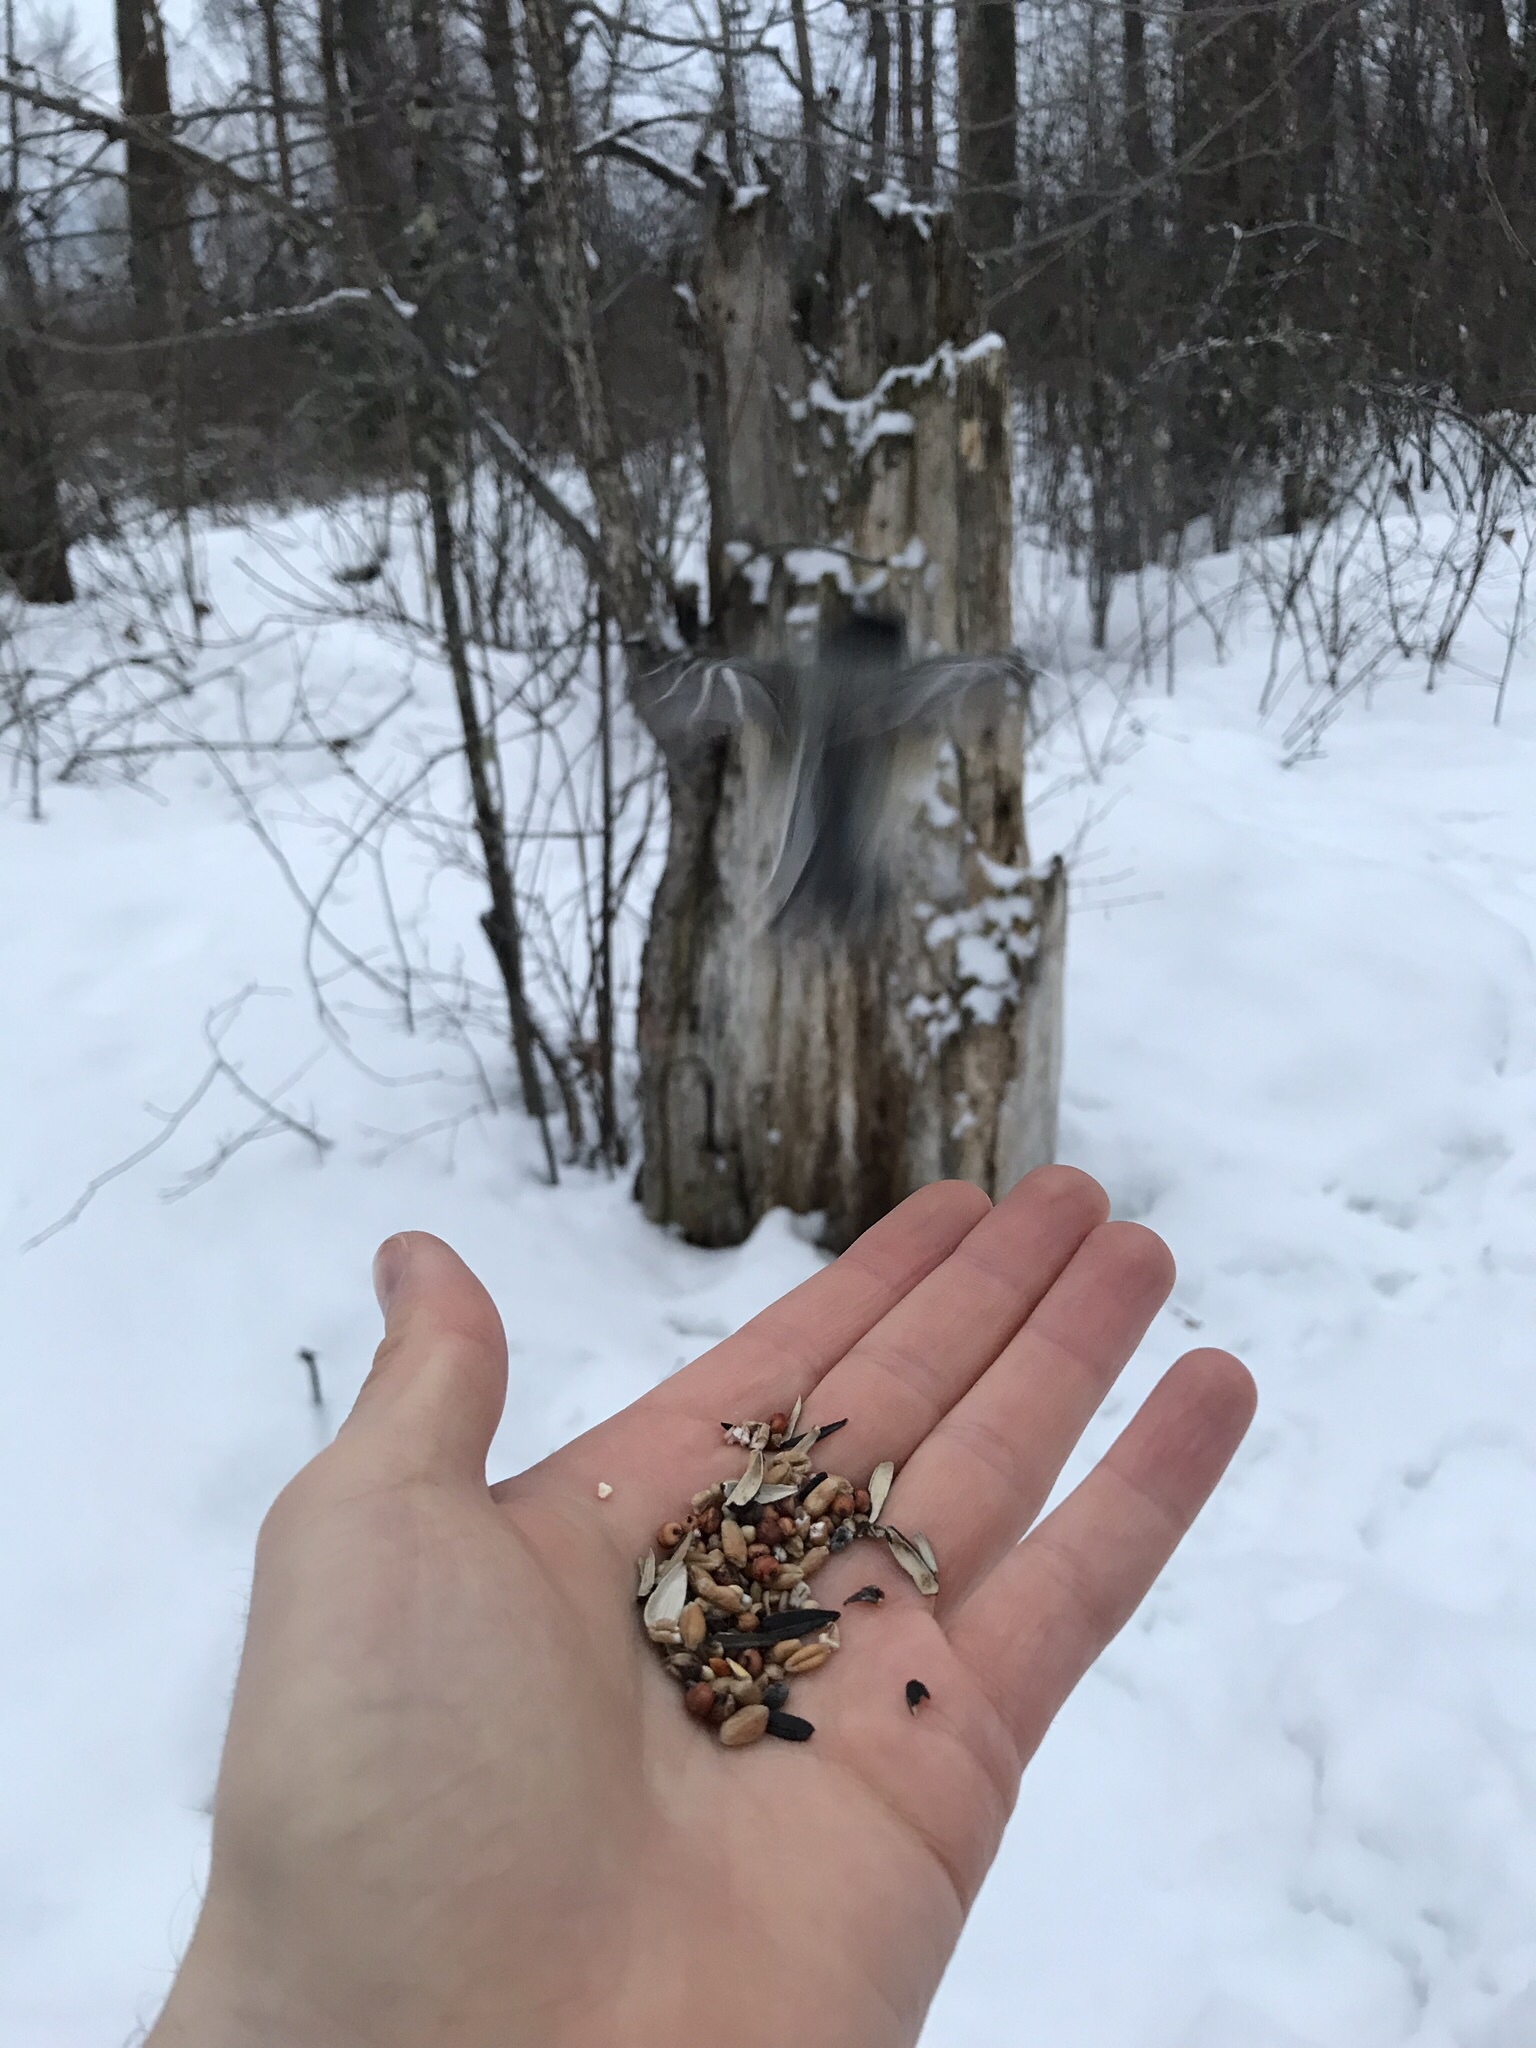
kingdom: Animalia
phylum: Chordata
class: Aves
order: Passeriformes
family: Paridae
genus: Poecile
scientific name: Poecile atricapillus
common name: Black-capped chickadee
